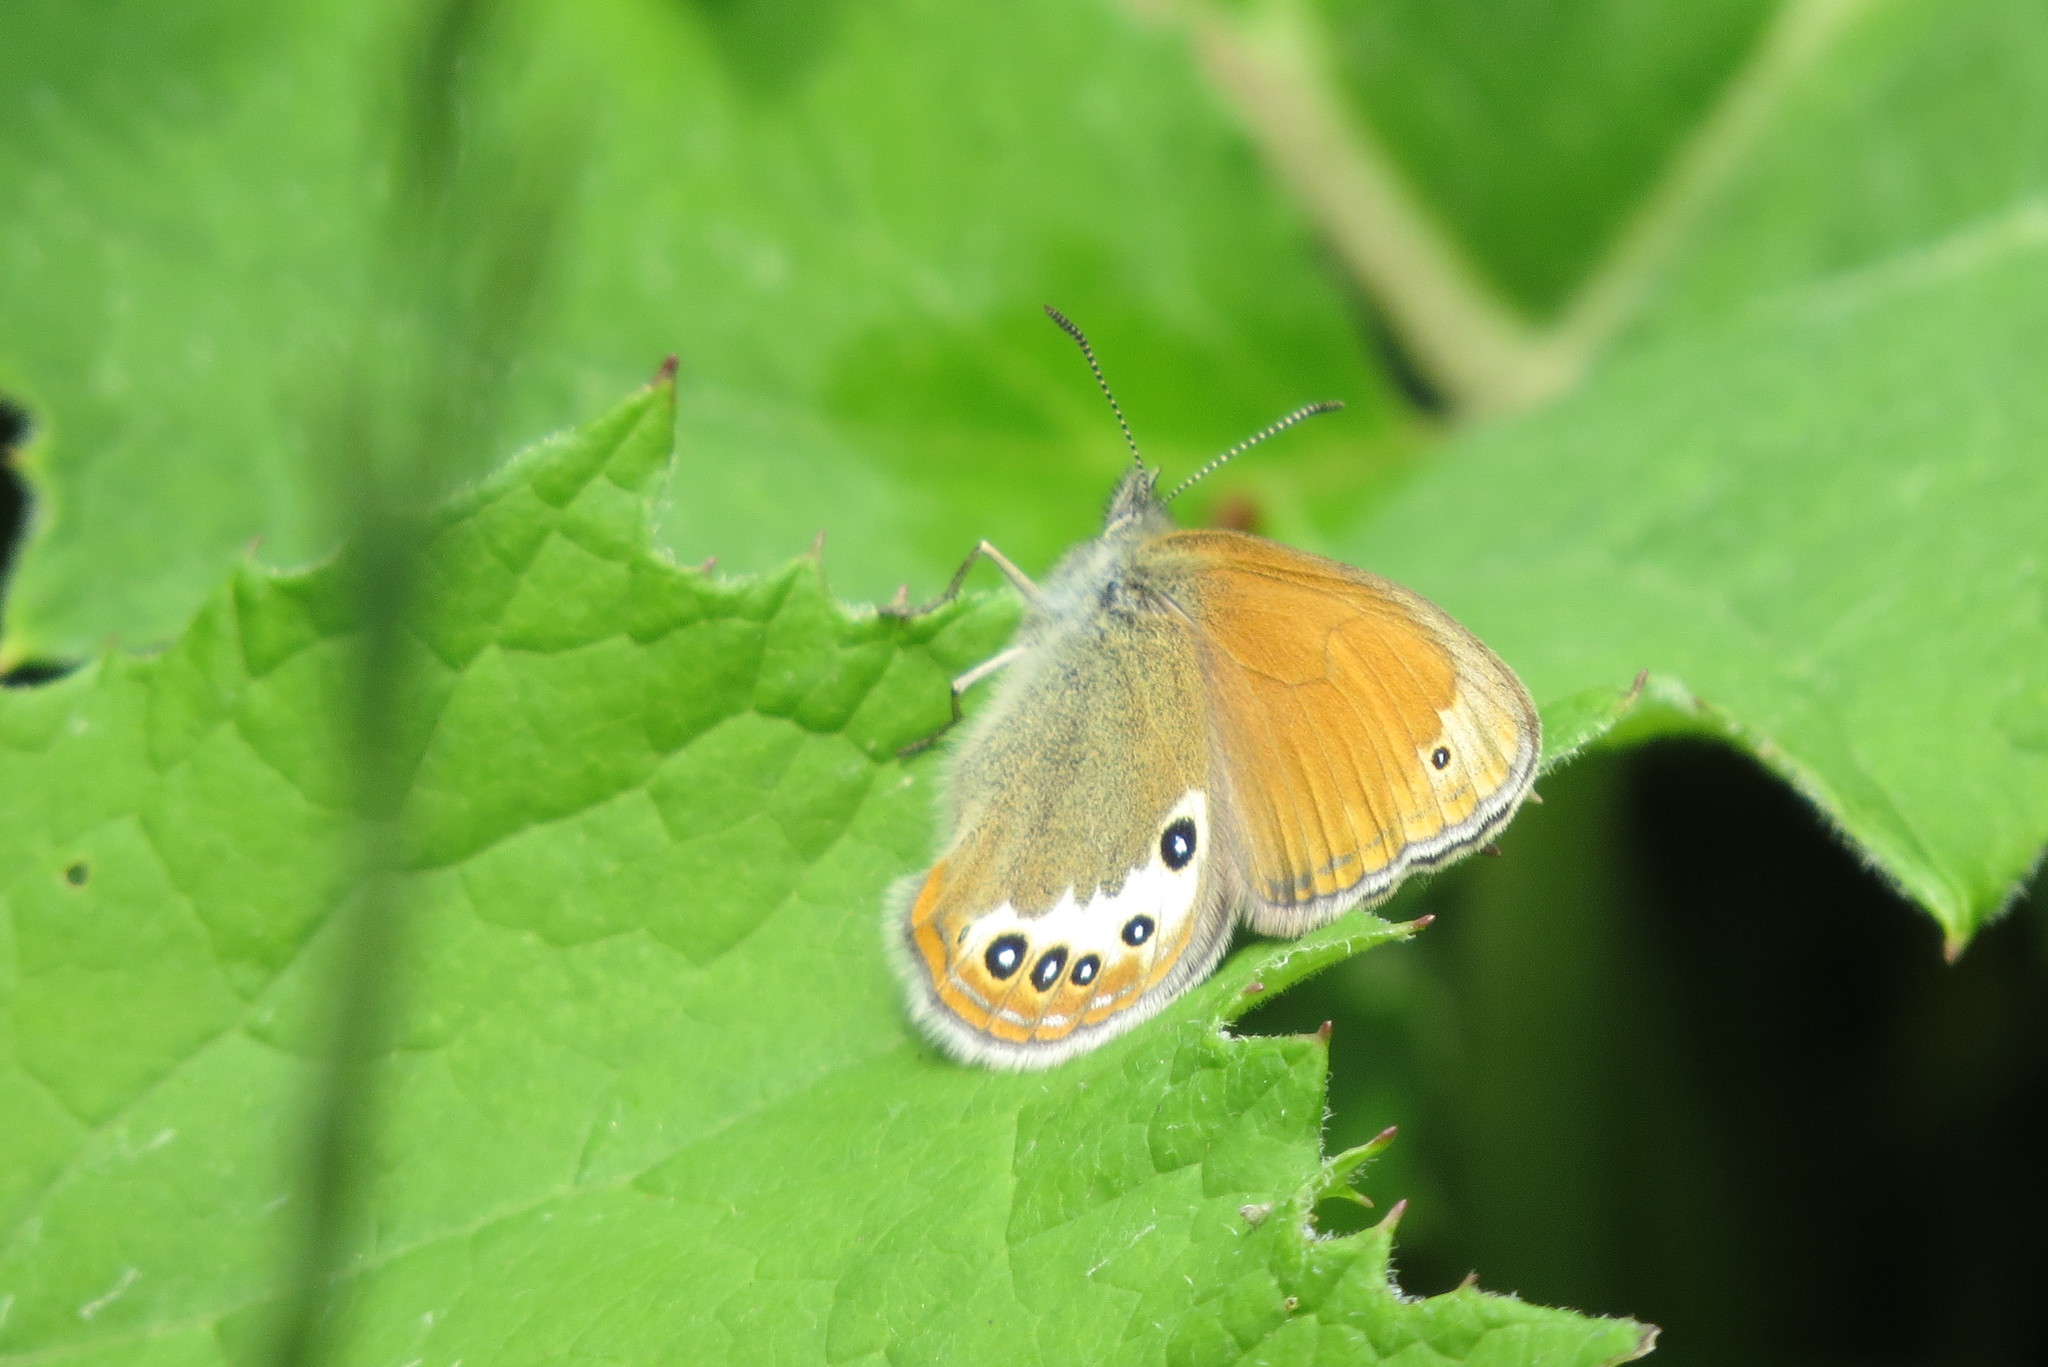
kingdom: Animalia
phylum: Arthropoda
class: Insecta
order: Lepidoptera
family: Nymphalidae
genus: Coenonympha
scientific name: Coenonympha
